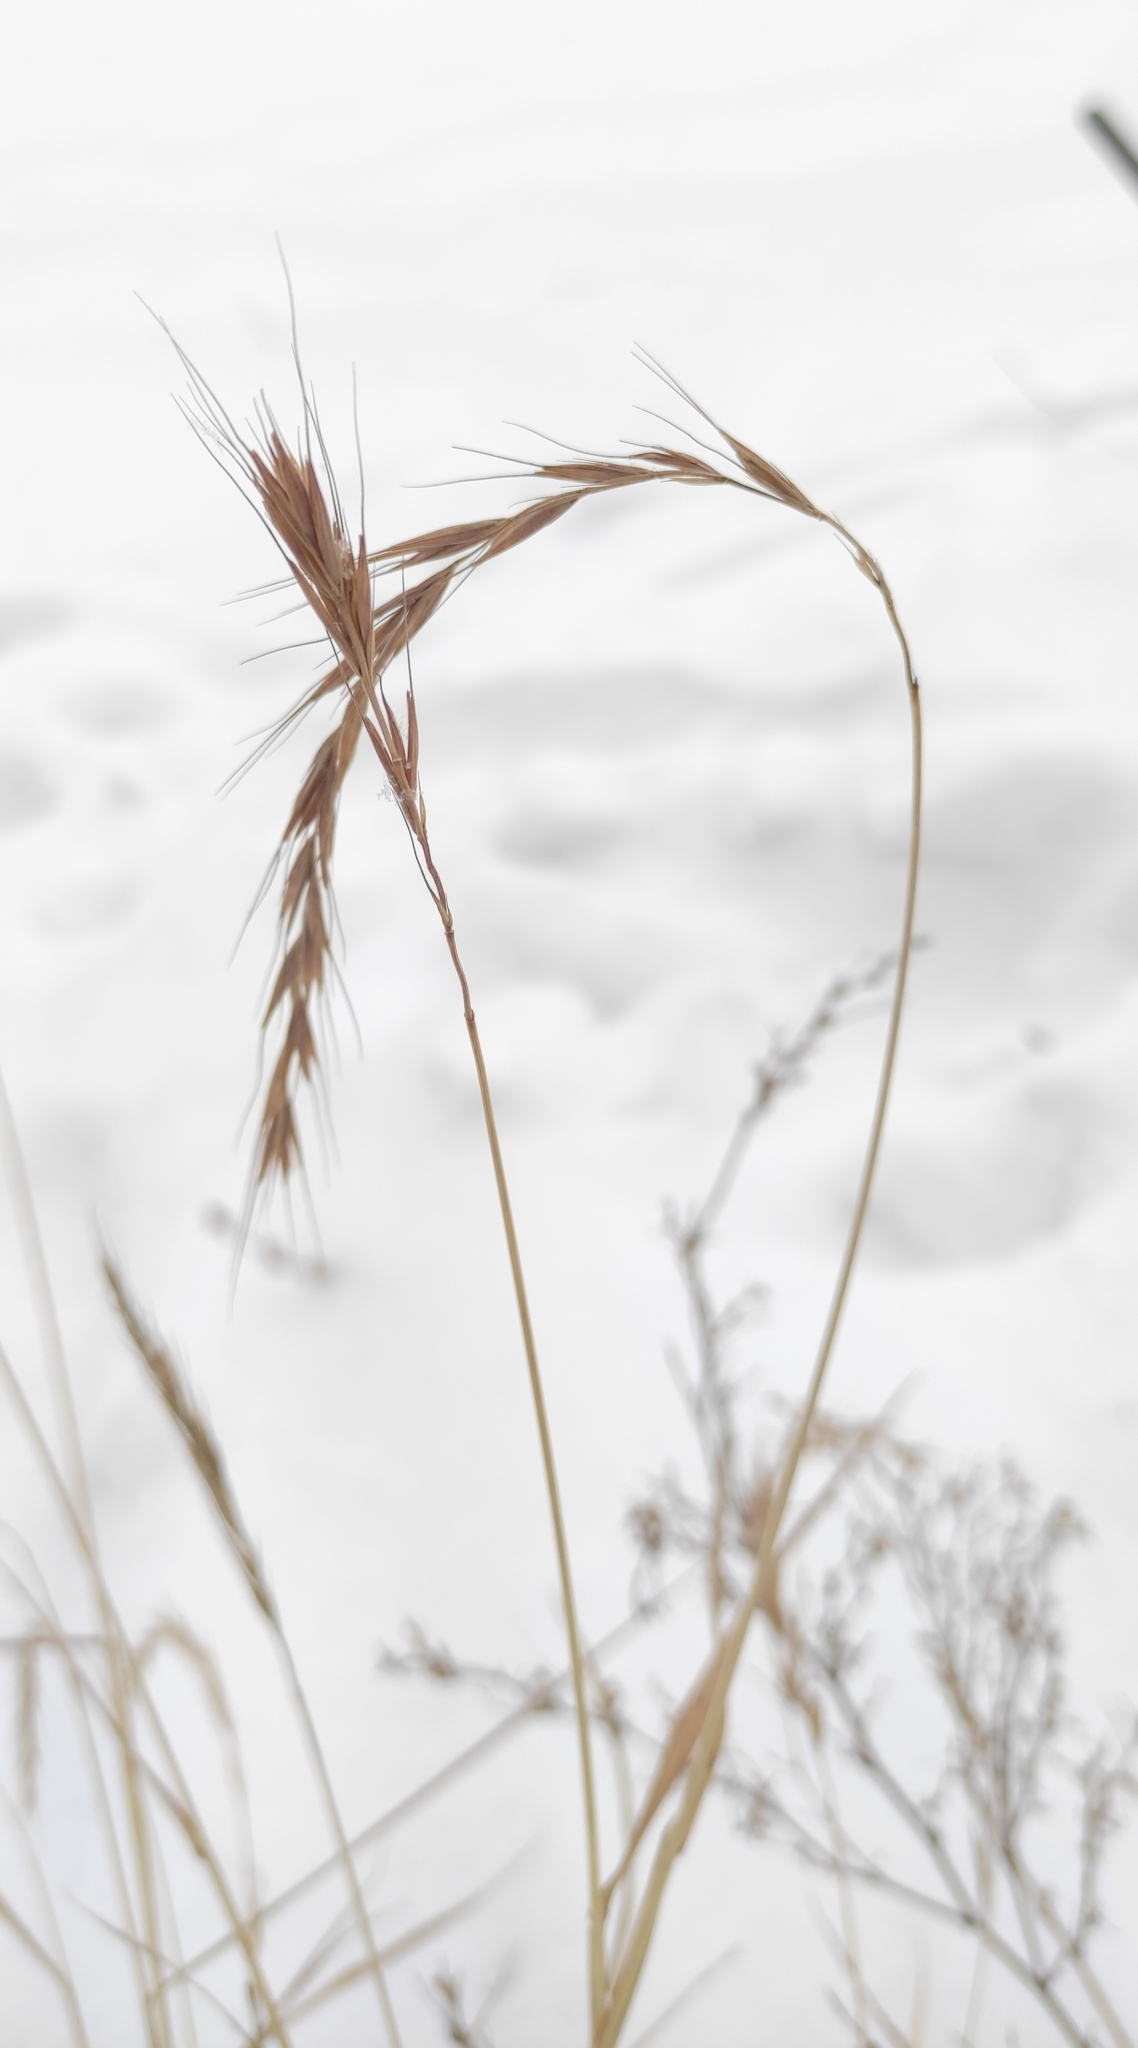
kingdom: Plantae
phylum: Tracheophyta
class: Liliopsida
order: Poales
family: Poaceae
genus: Elymus
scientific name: Elymus sibiricus
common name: Siberian wildrye
